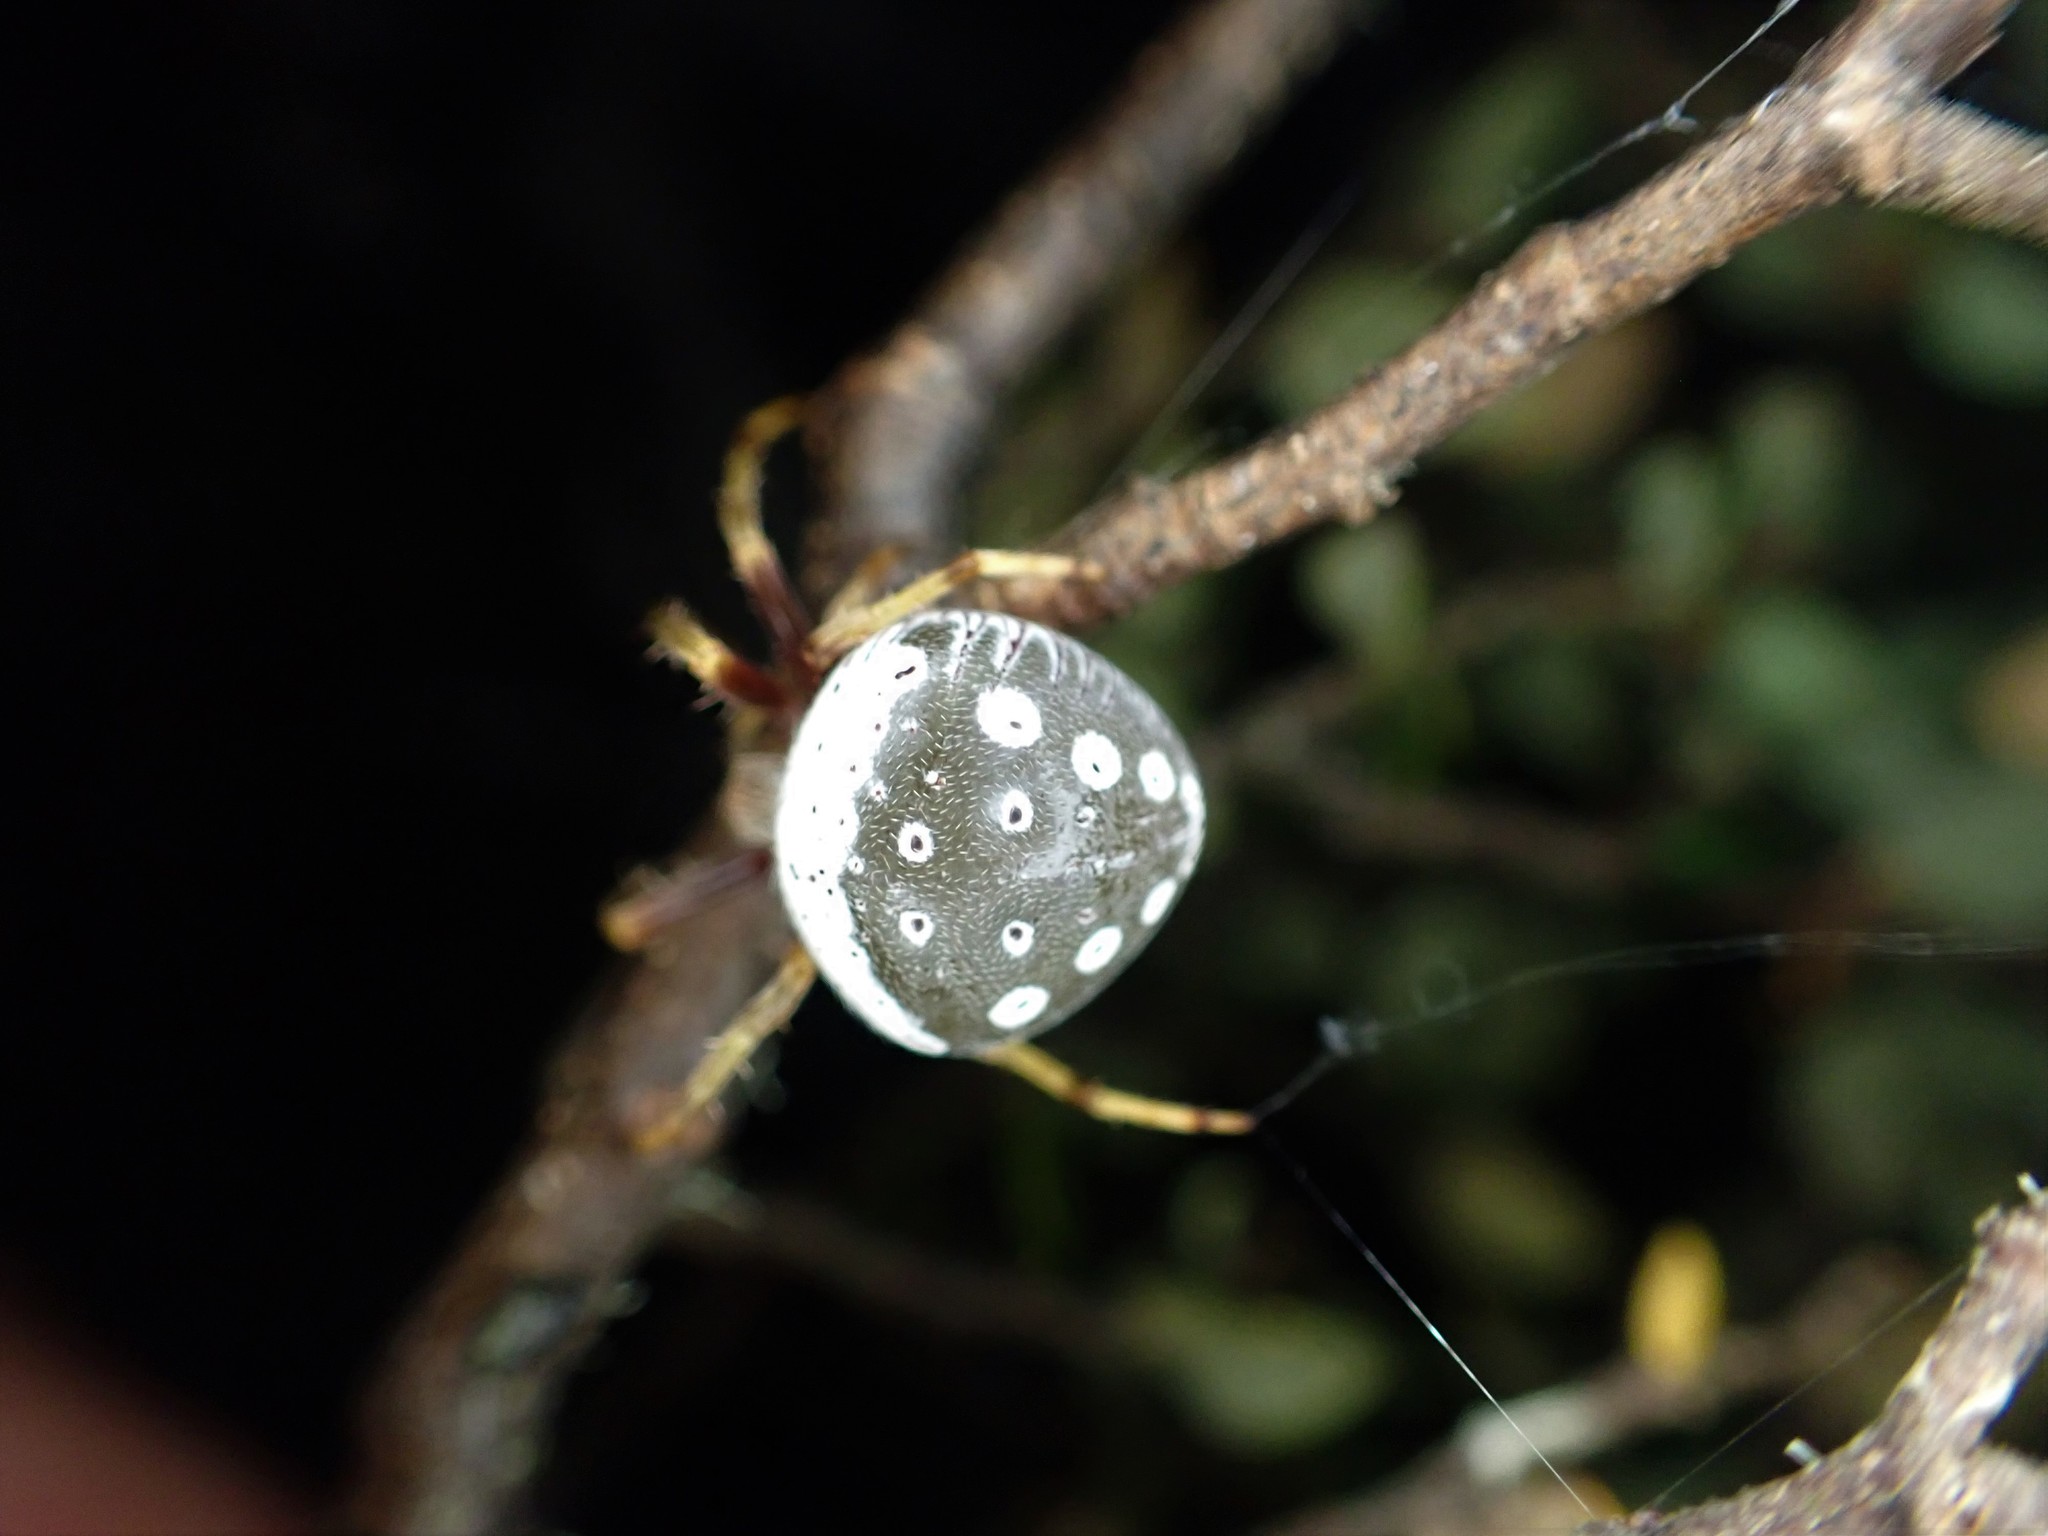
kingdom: Animalia
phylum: Arthropoda
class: Arachnida
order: Araneae
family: Araneidae
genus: Zealaranea
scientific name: Zealaranea prina
